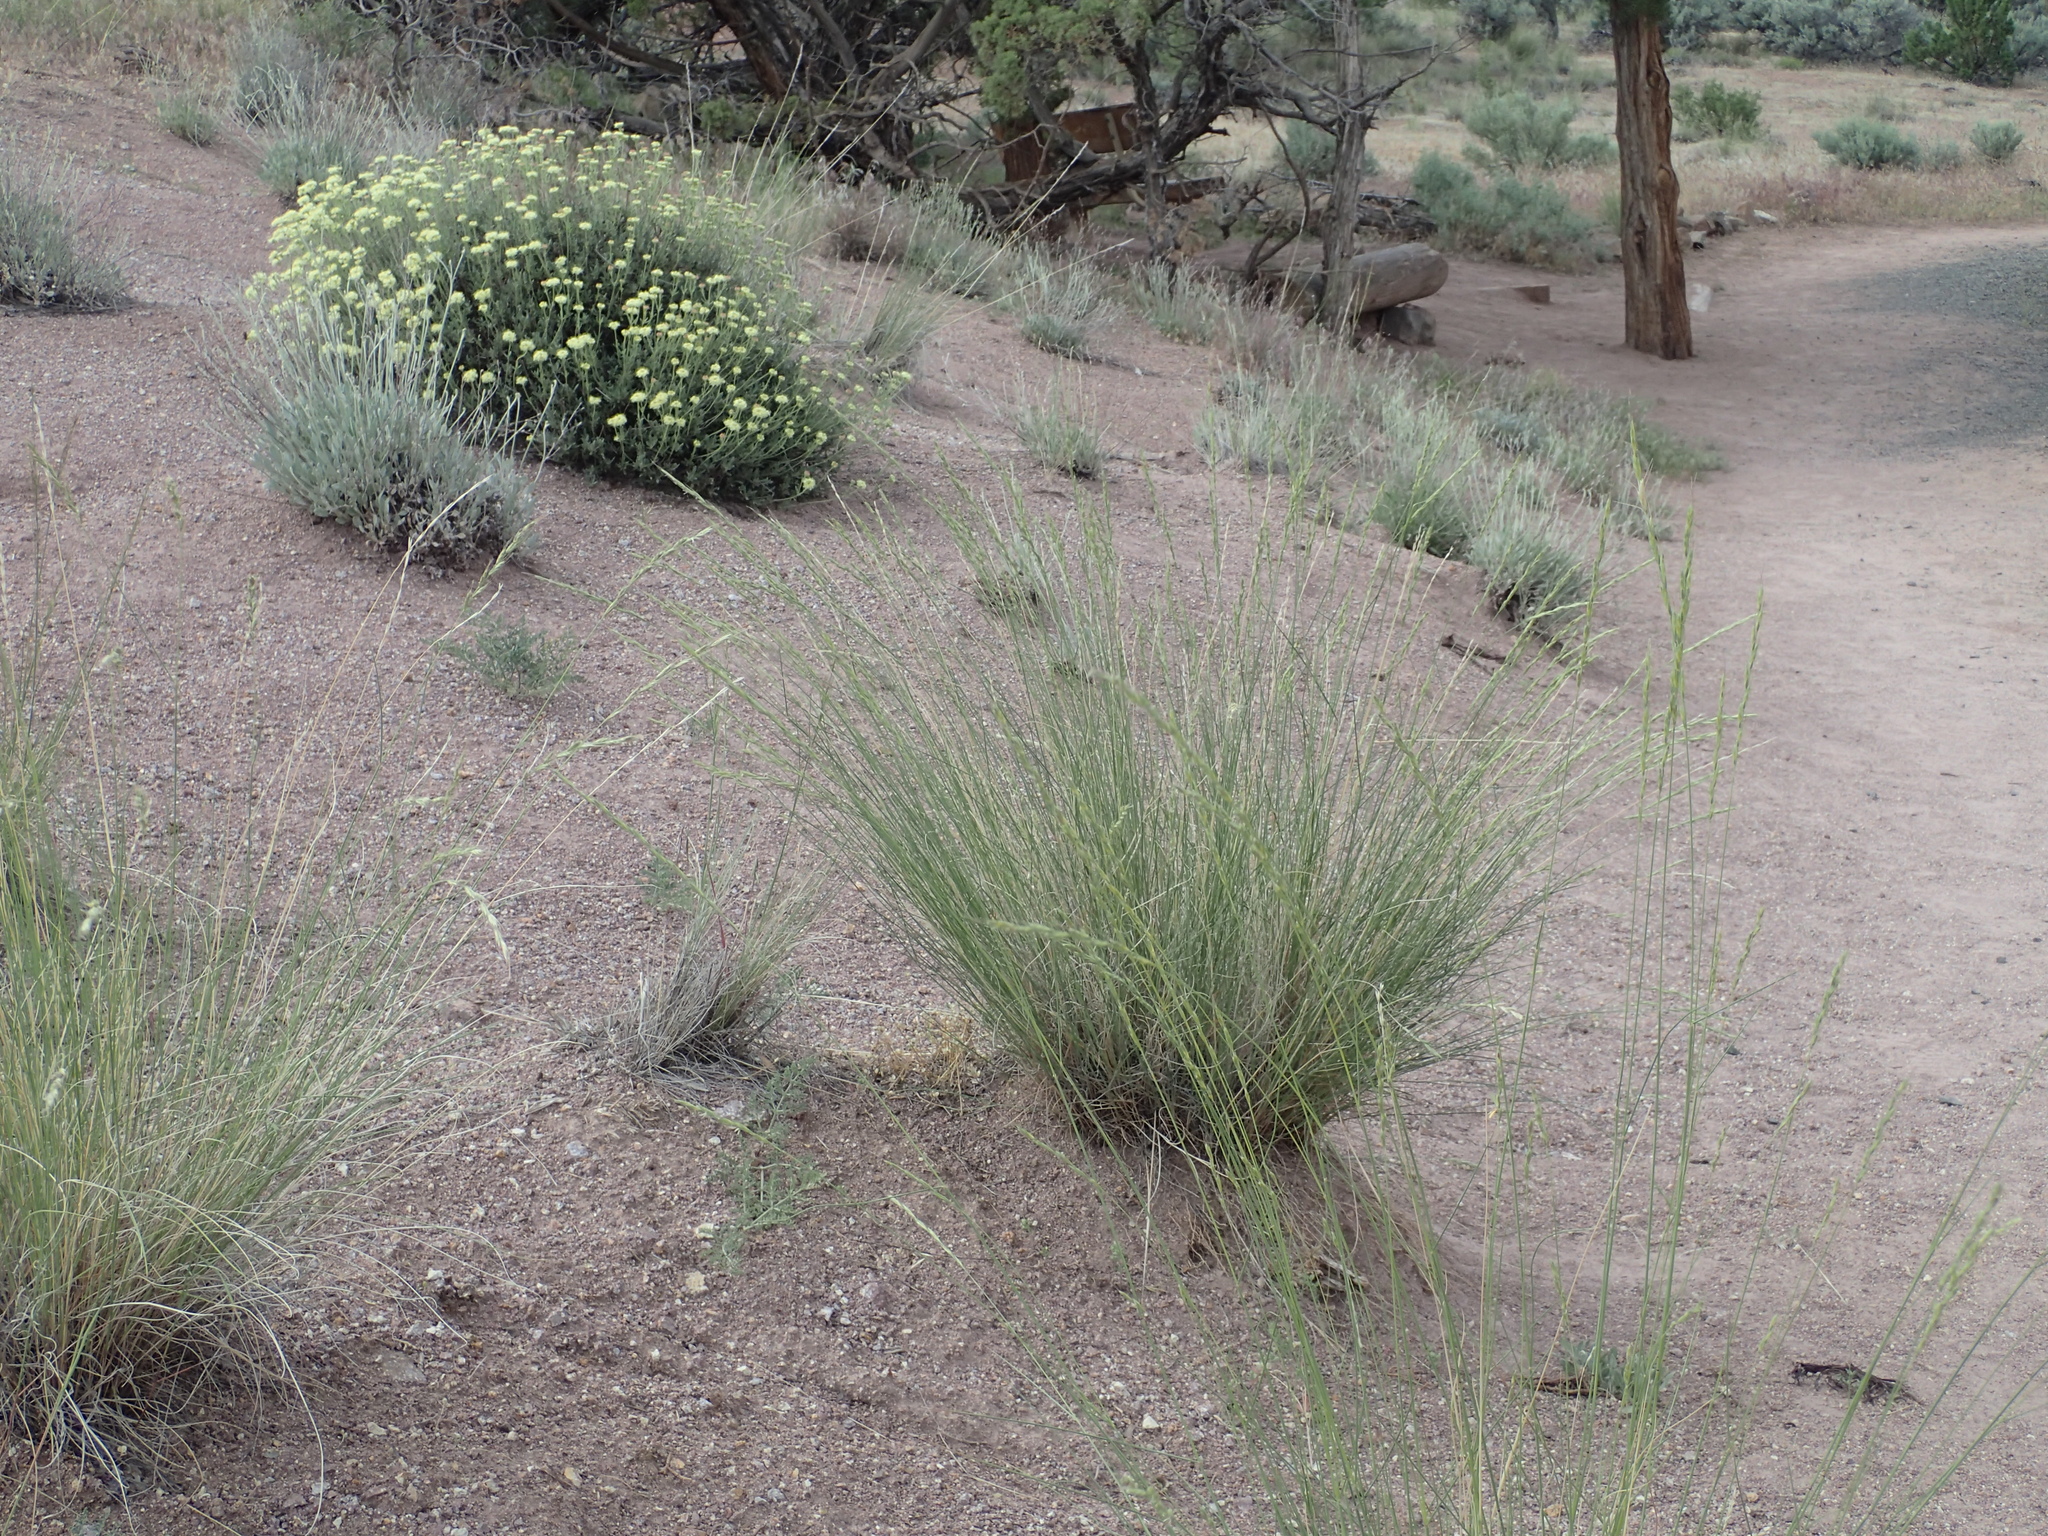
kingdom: Plantae
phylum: Tracheophyta
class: Liliopsida
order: Poales
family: Poaceae
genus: Pseudoroegneria
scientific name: Pseudoroegneria spicata
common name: Bluebunch wheatgrass
